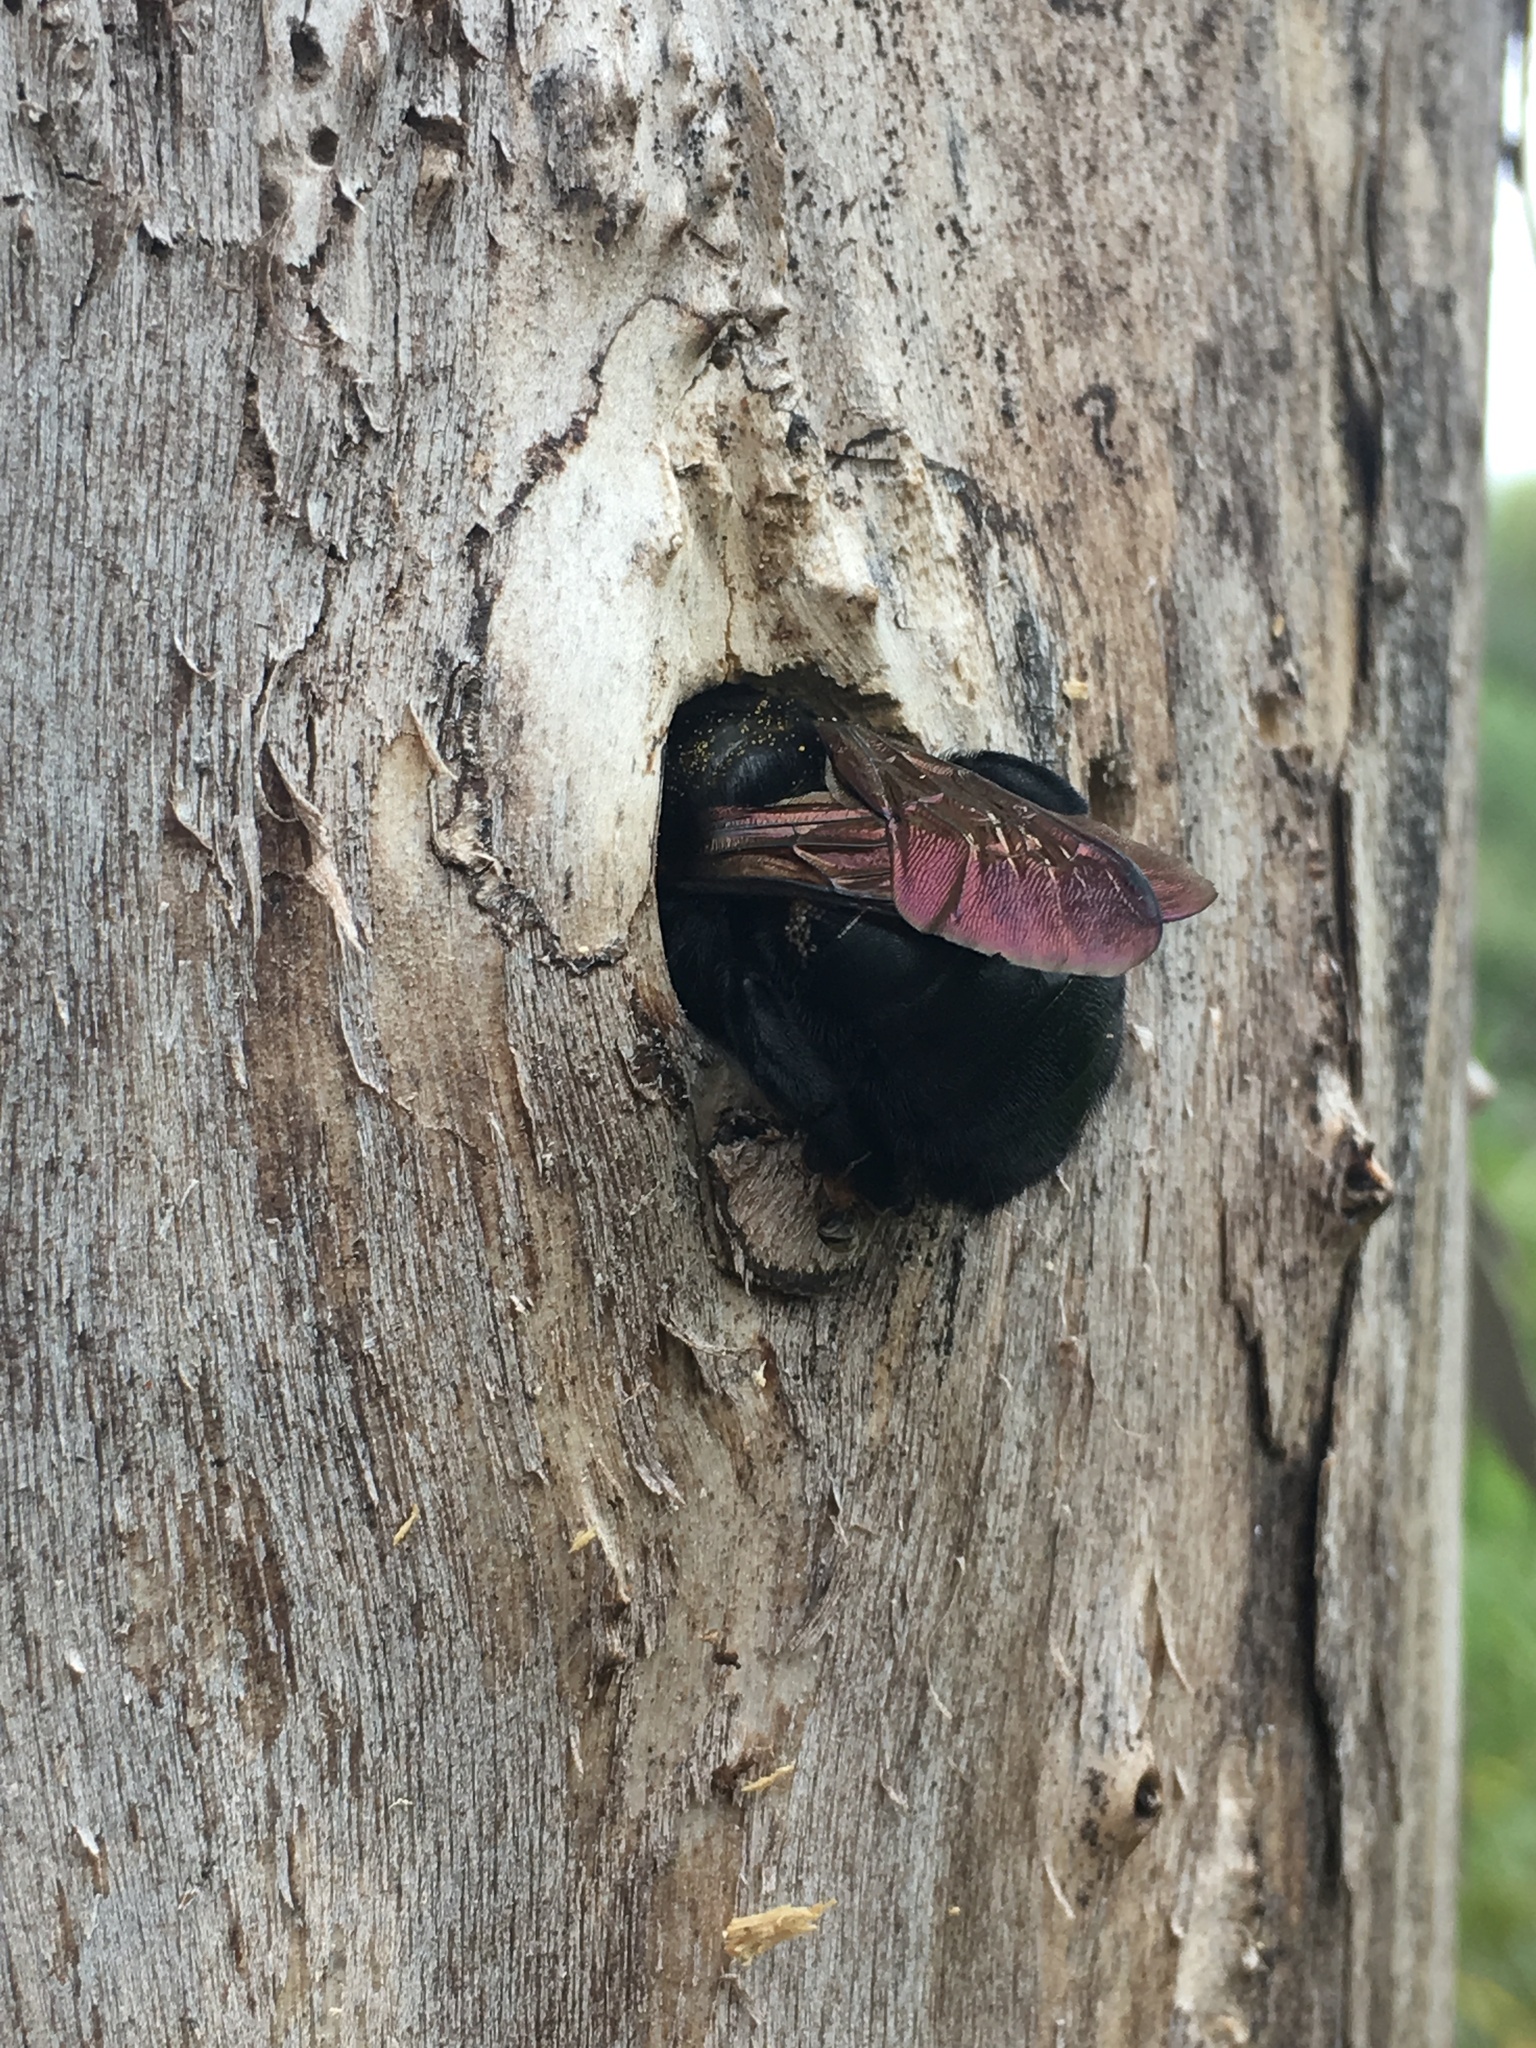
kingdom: Animalia
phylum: Arthropoda
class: Insecta
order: Hymenoptera
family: Apidae
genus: Xylocopa
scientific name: Xylocopa sonorina
